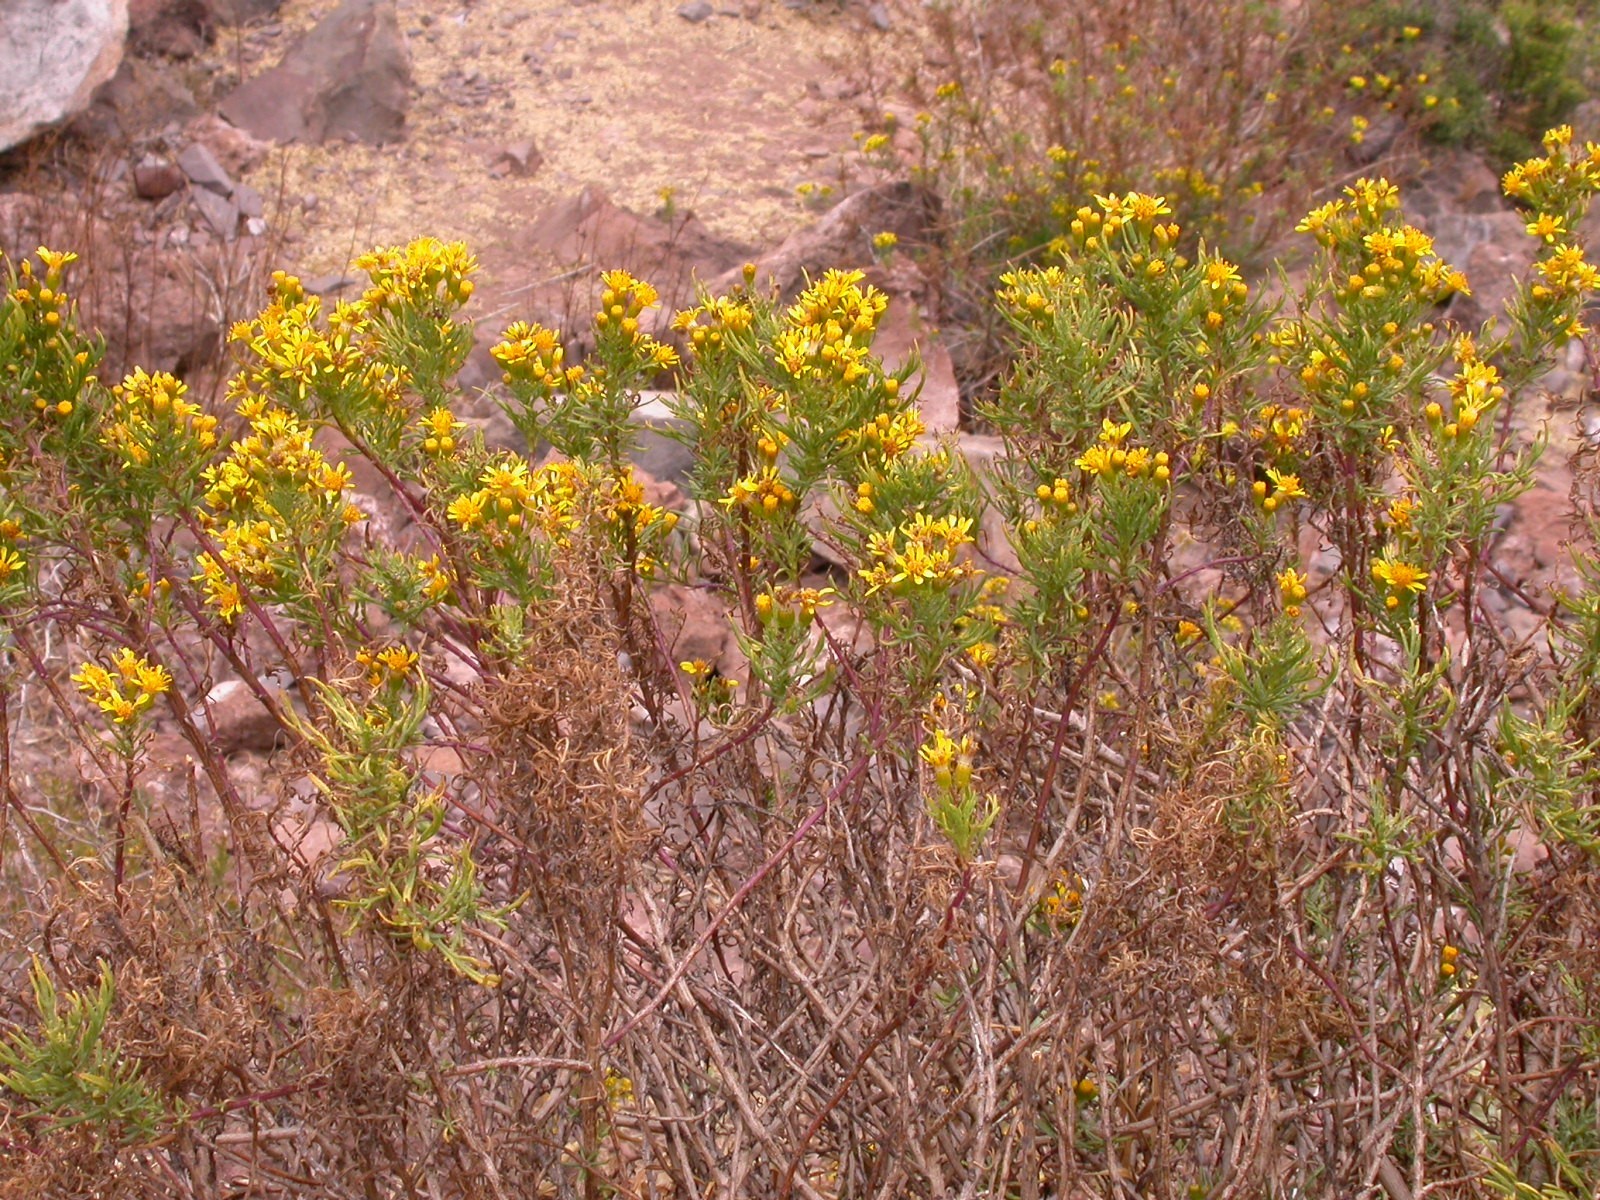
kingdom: Plantae
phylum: Tracheophyta
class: Magnoliopsida
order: Asterales
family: Asteraceae
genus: Senecio
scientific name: Senecio rudbeckiifolius
